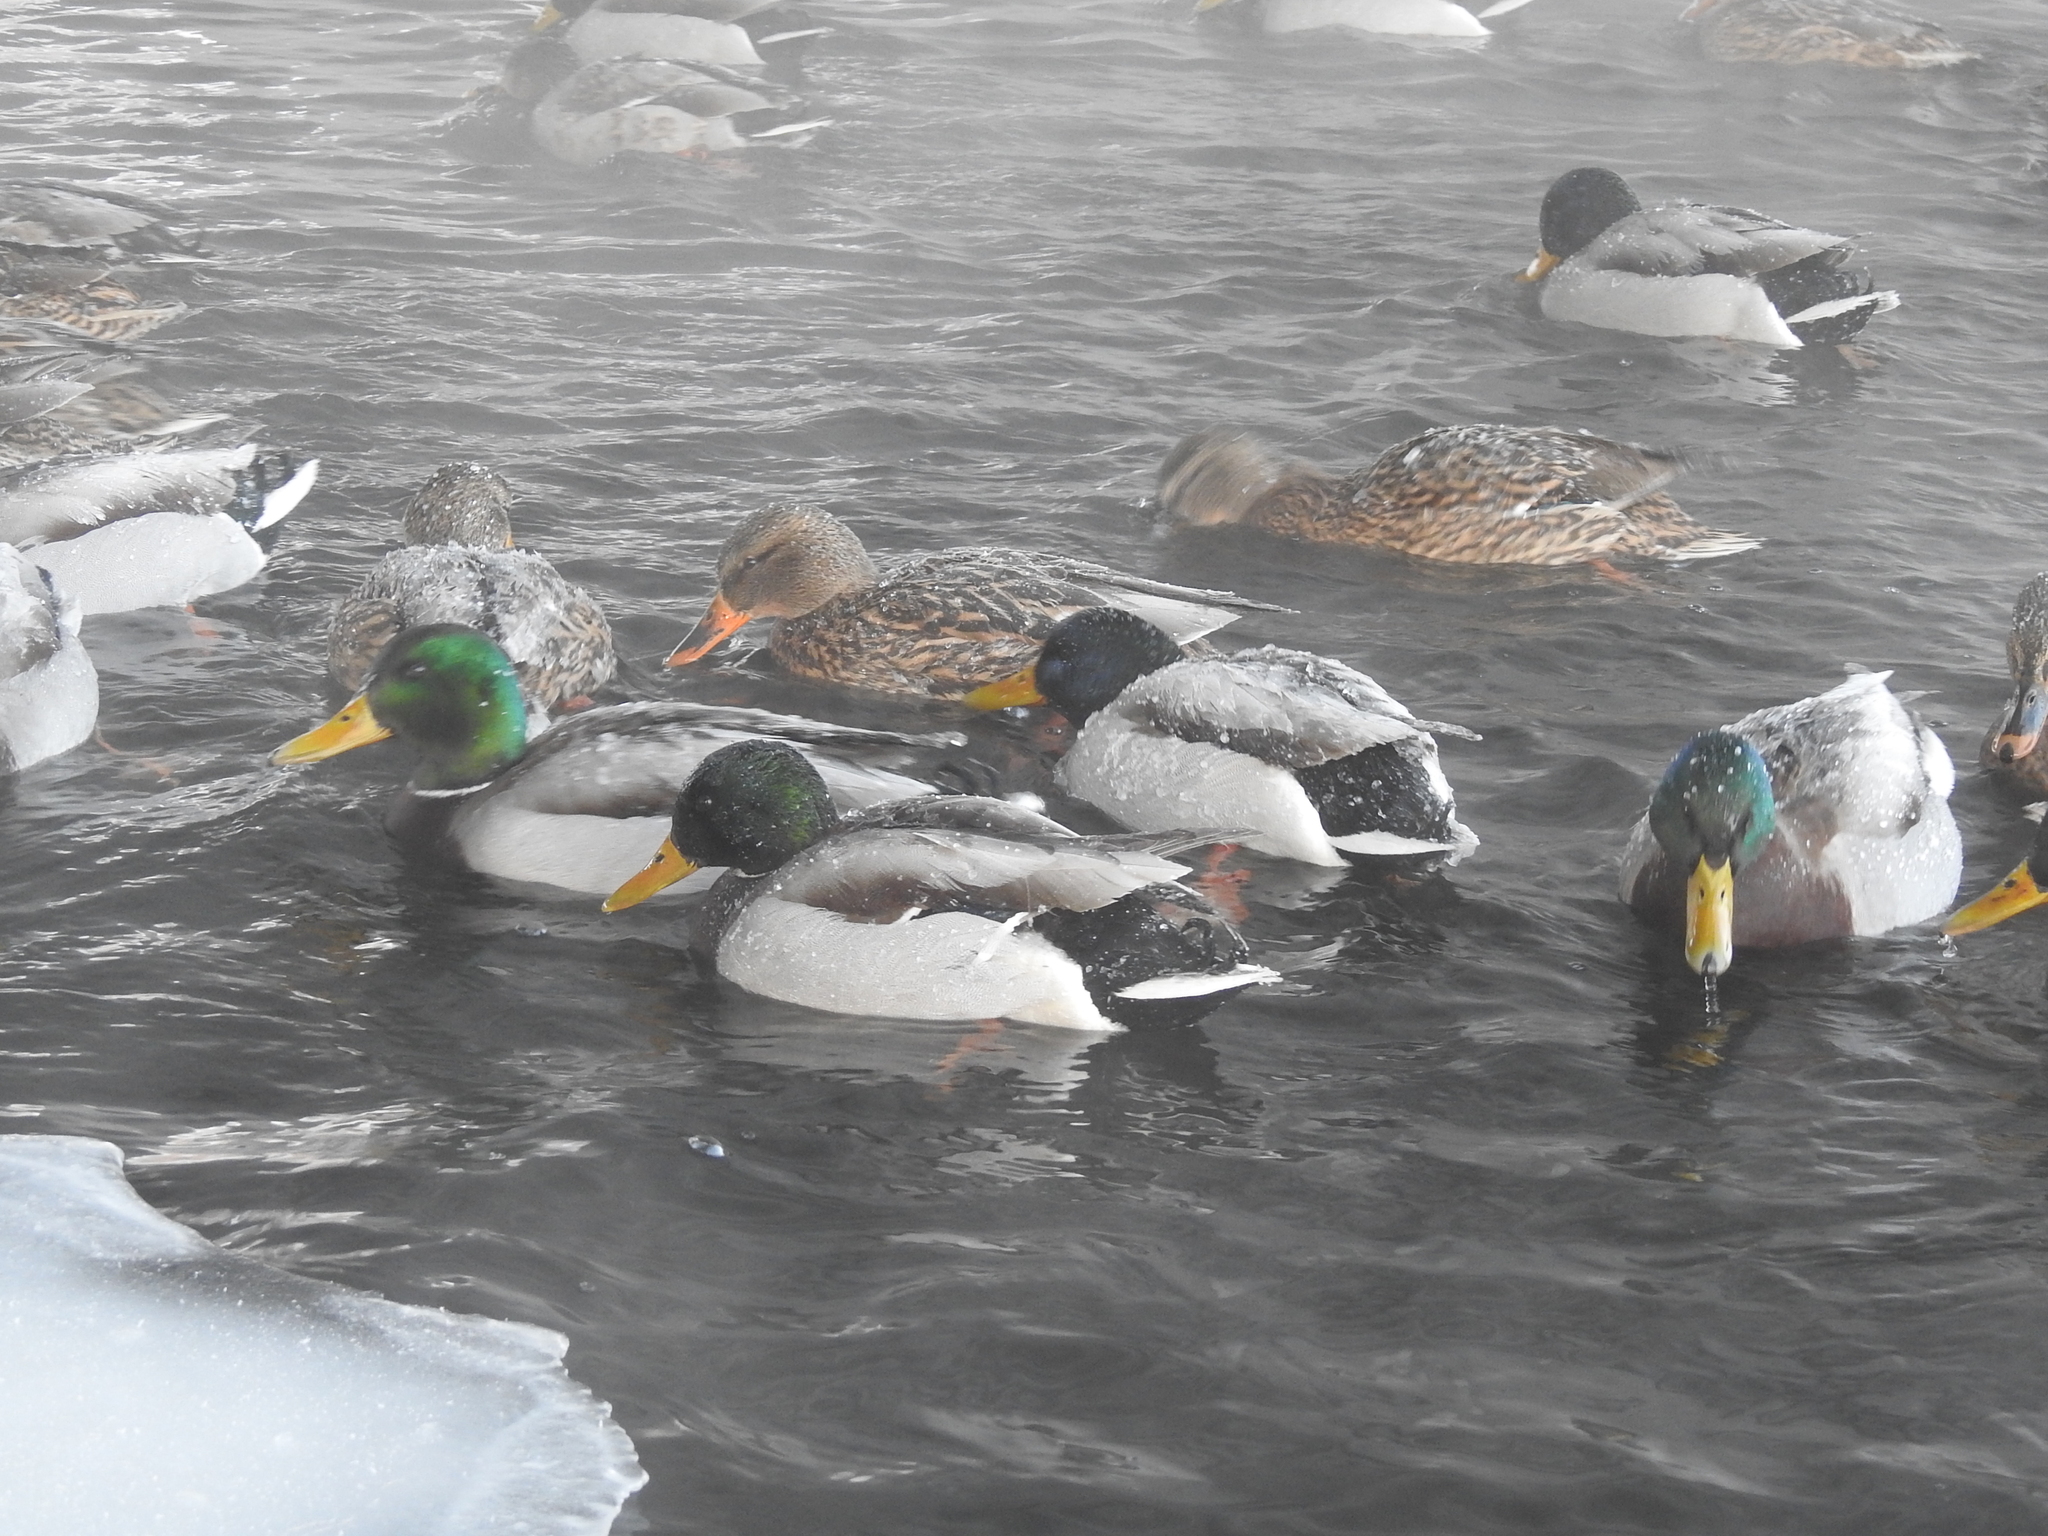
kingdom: Animalia
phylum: Chordata
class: Aves
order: Anseriformes
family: Anatidae
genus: Anas
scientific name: Anas platyrhynchos
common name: Mallard
